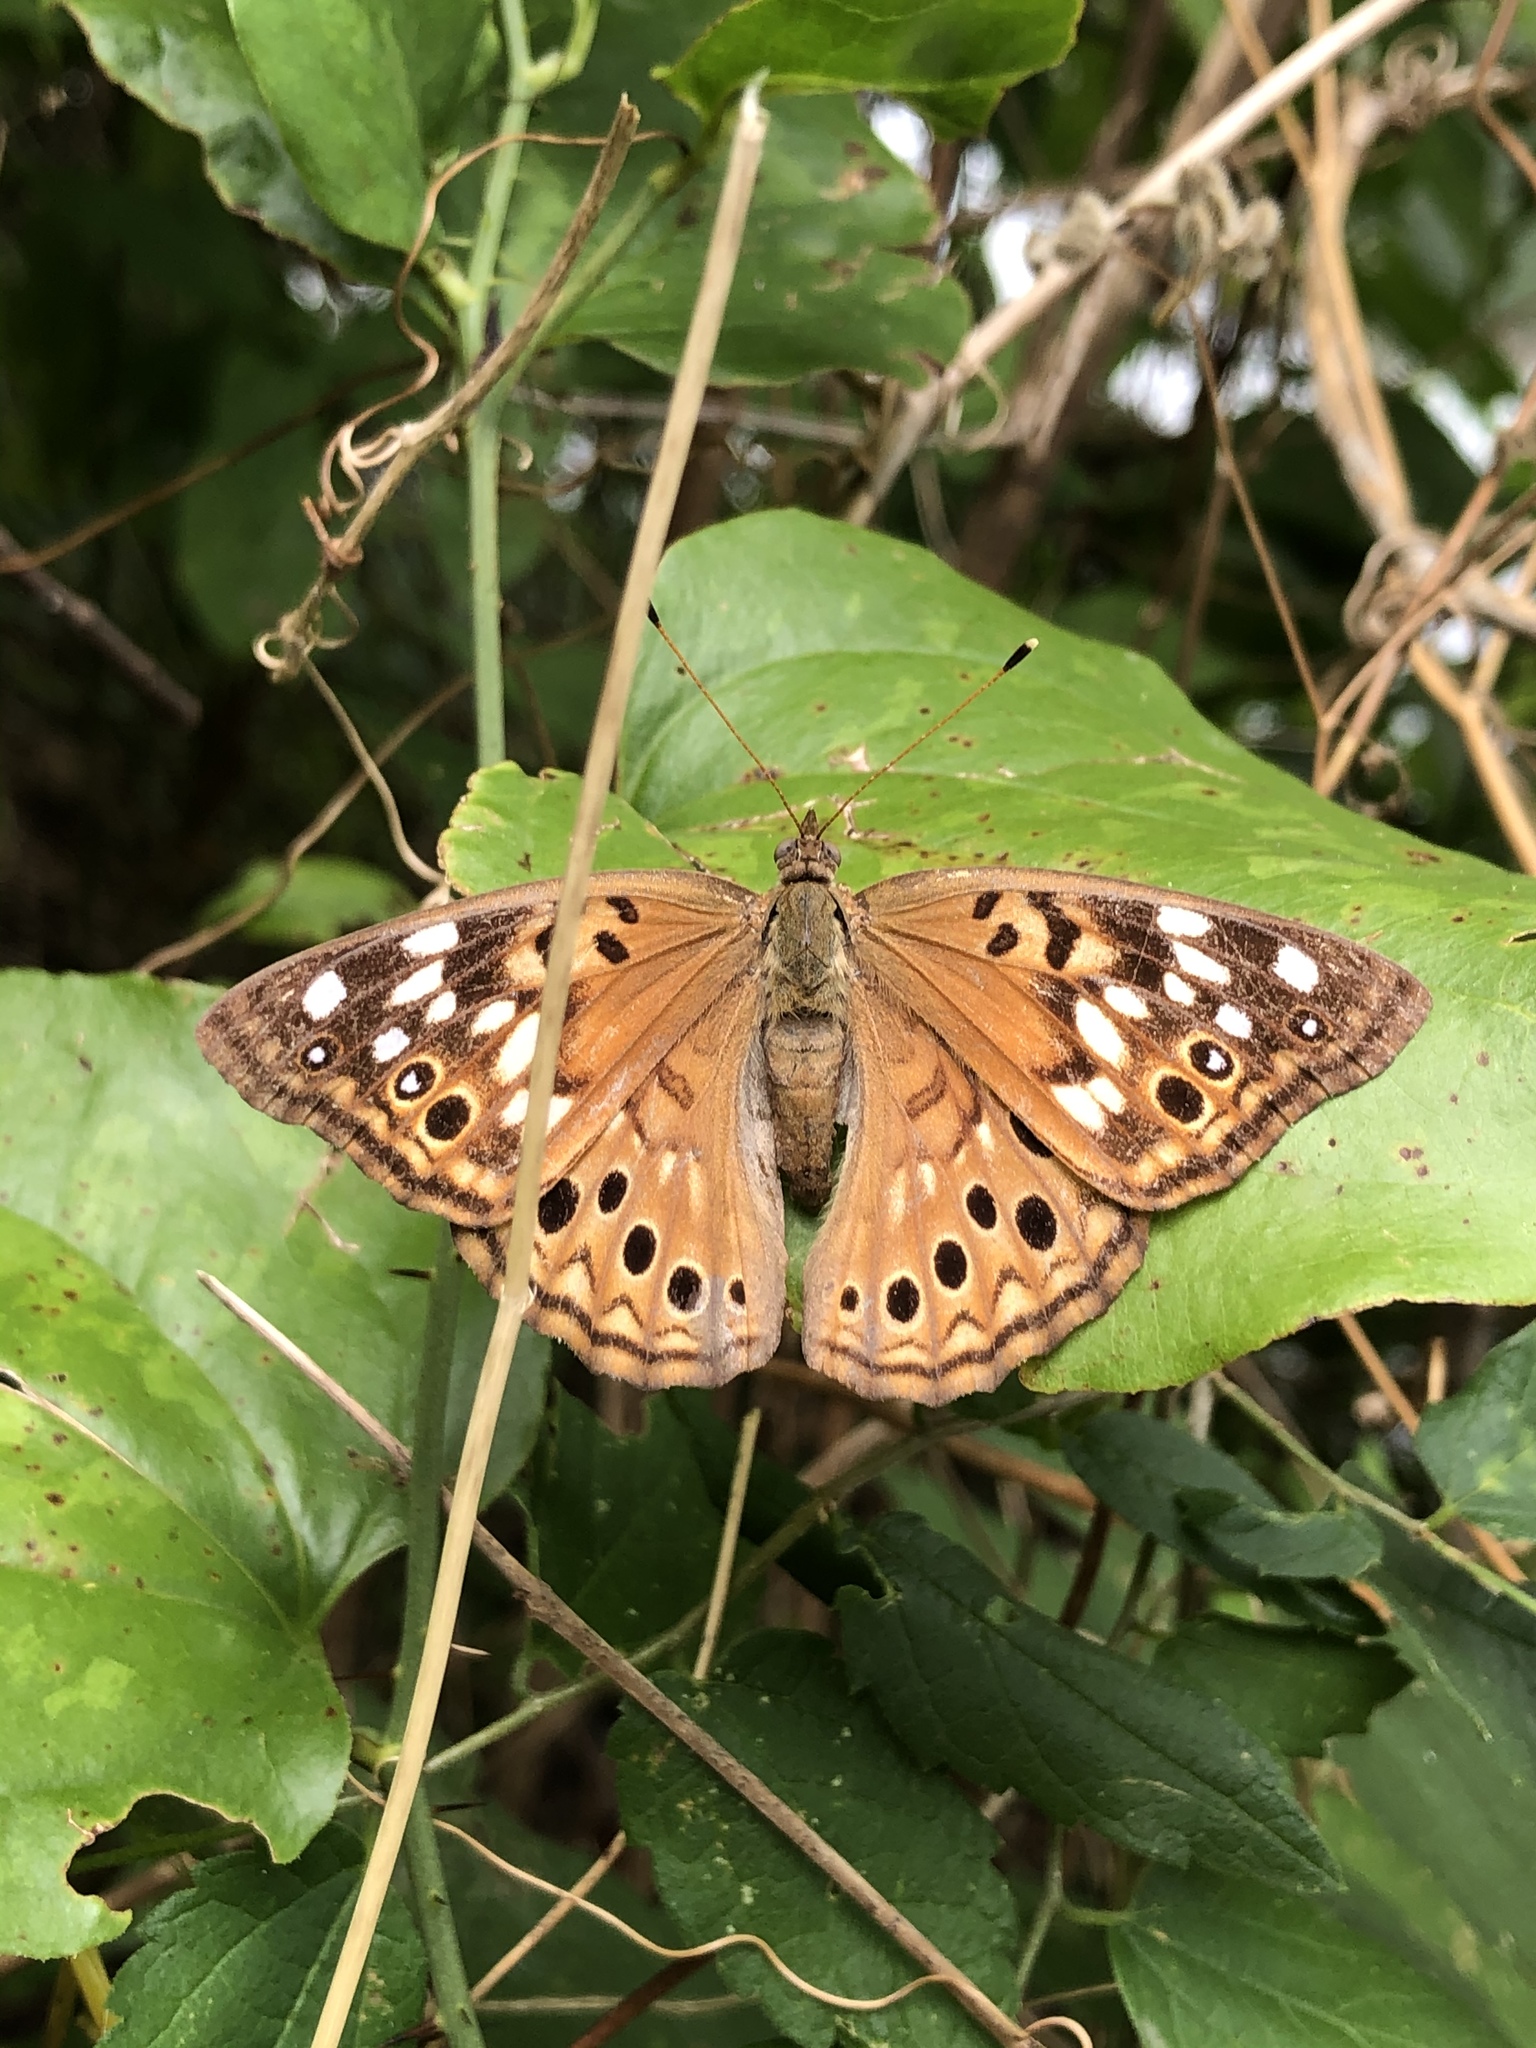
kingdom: Animalia
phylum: Arthropoda
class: Insecta
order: Lepidoptera
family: Nymphalidae
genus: Asterocampa
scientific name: Asterocampa celtis
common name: Hackberry emperor
